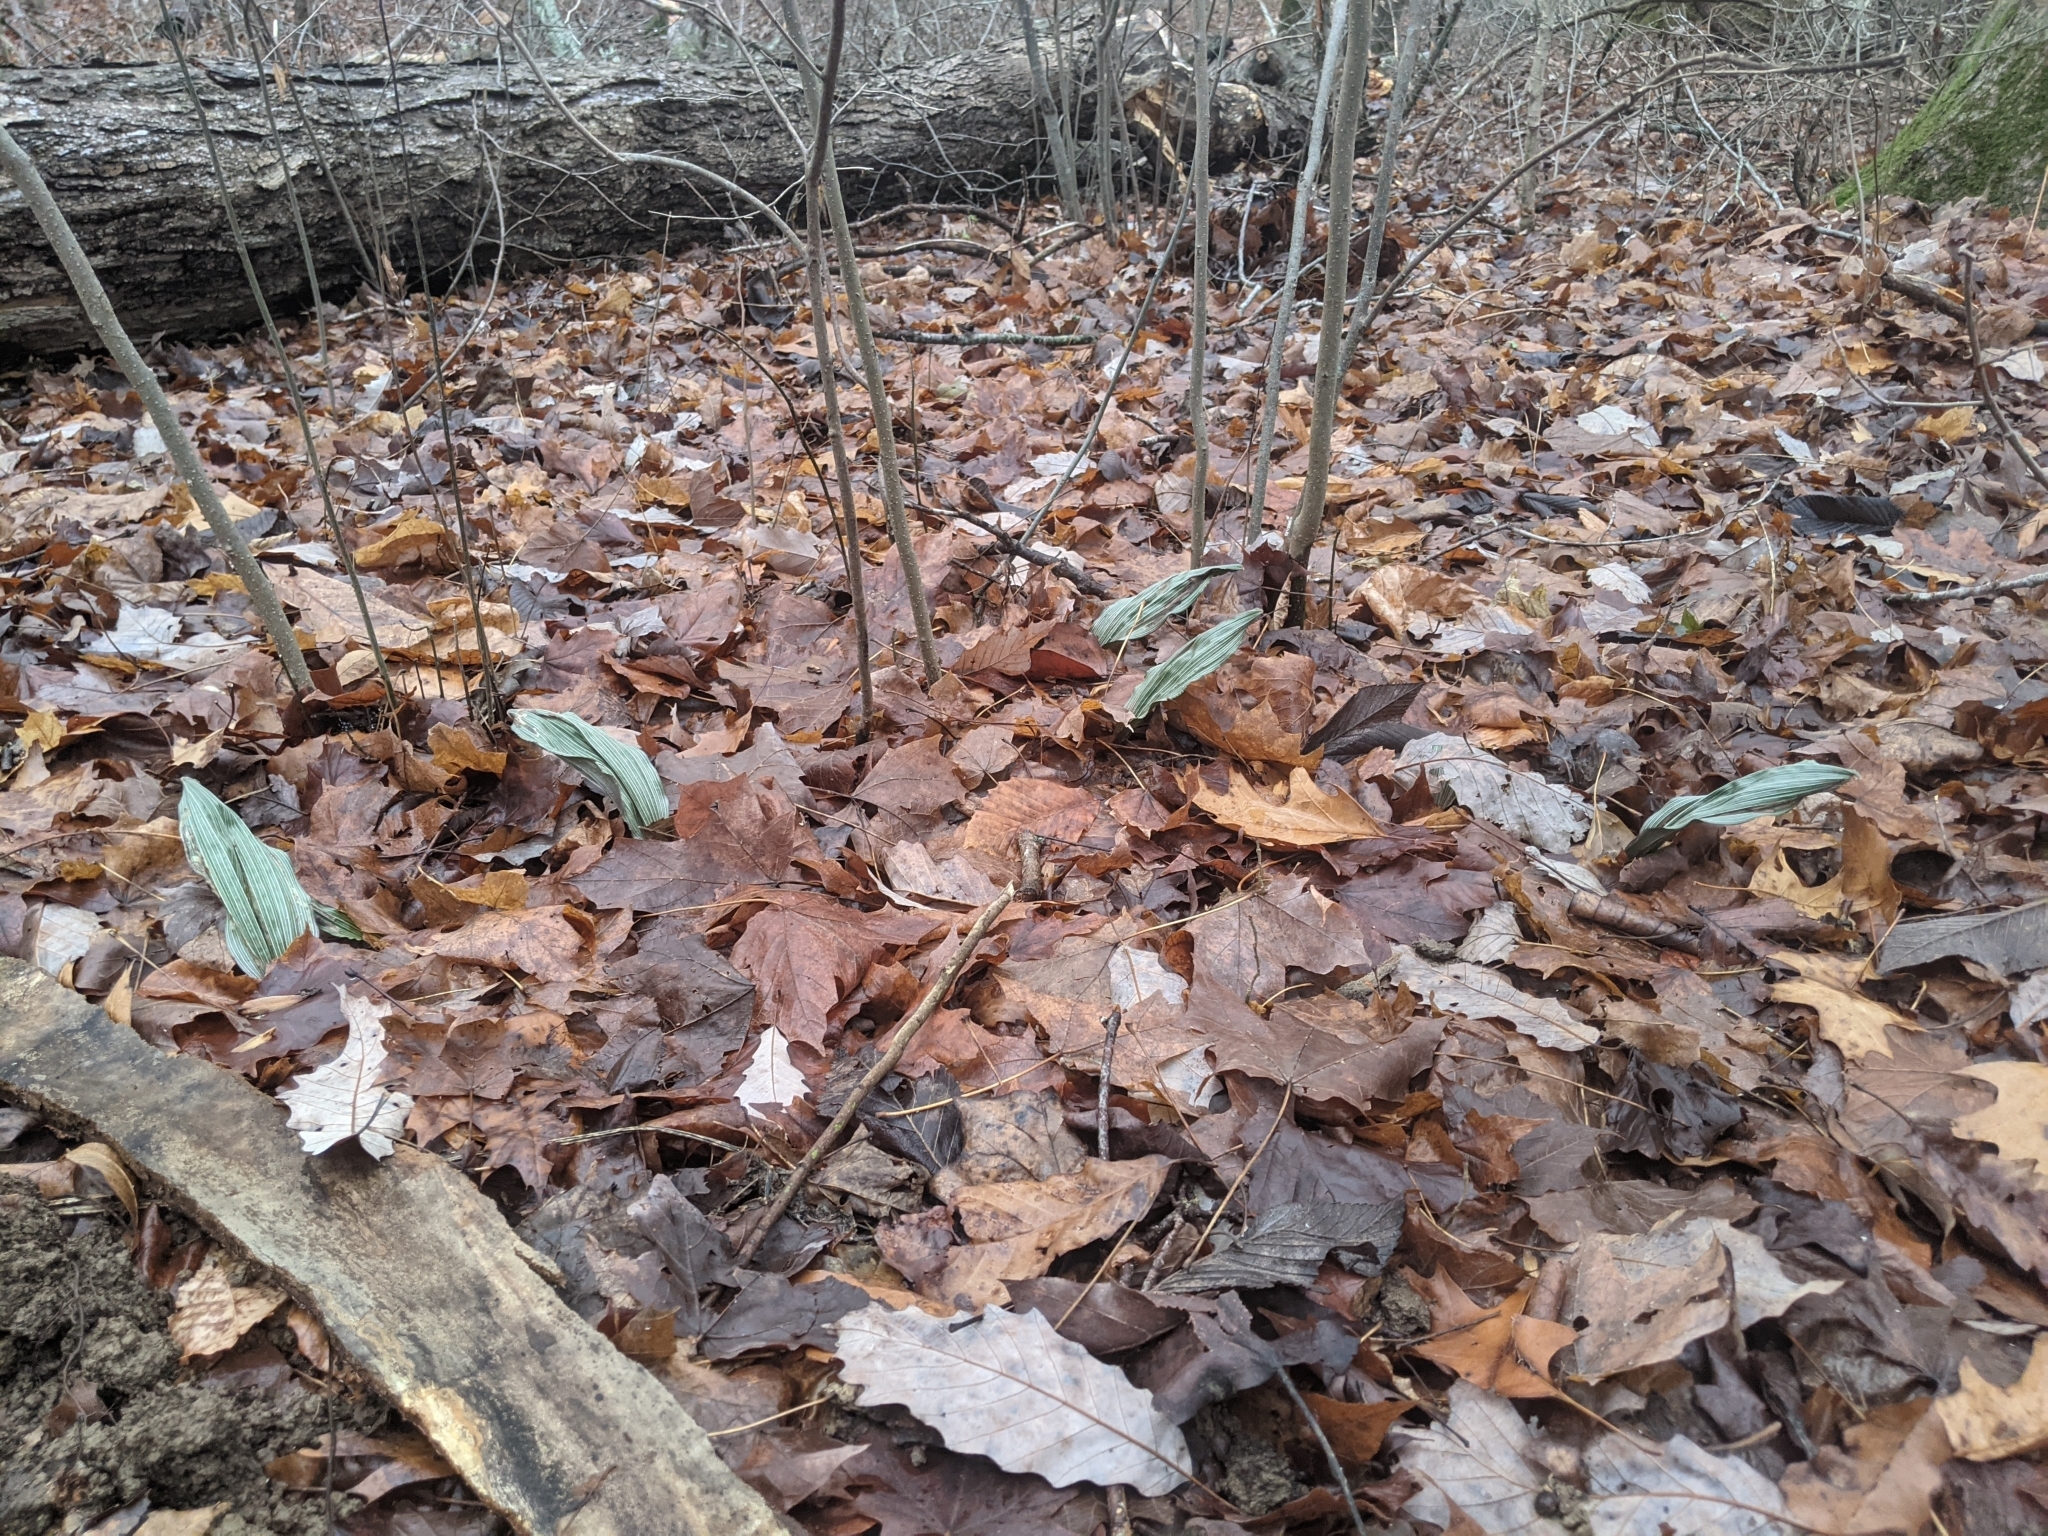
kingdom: Plantae
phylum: Tracheophyta
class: Liliopsida
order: Asparagales
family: Orchidaceae
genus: Aplectrum
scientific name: Aplectrum hyemale
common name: Adam-and-eve
